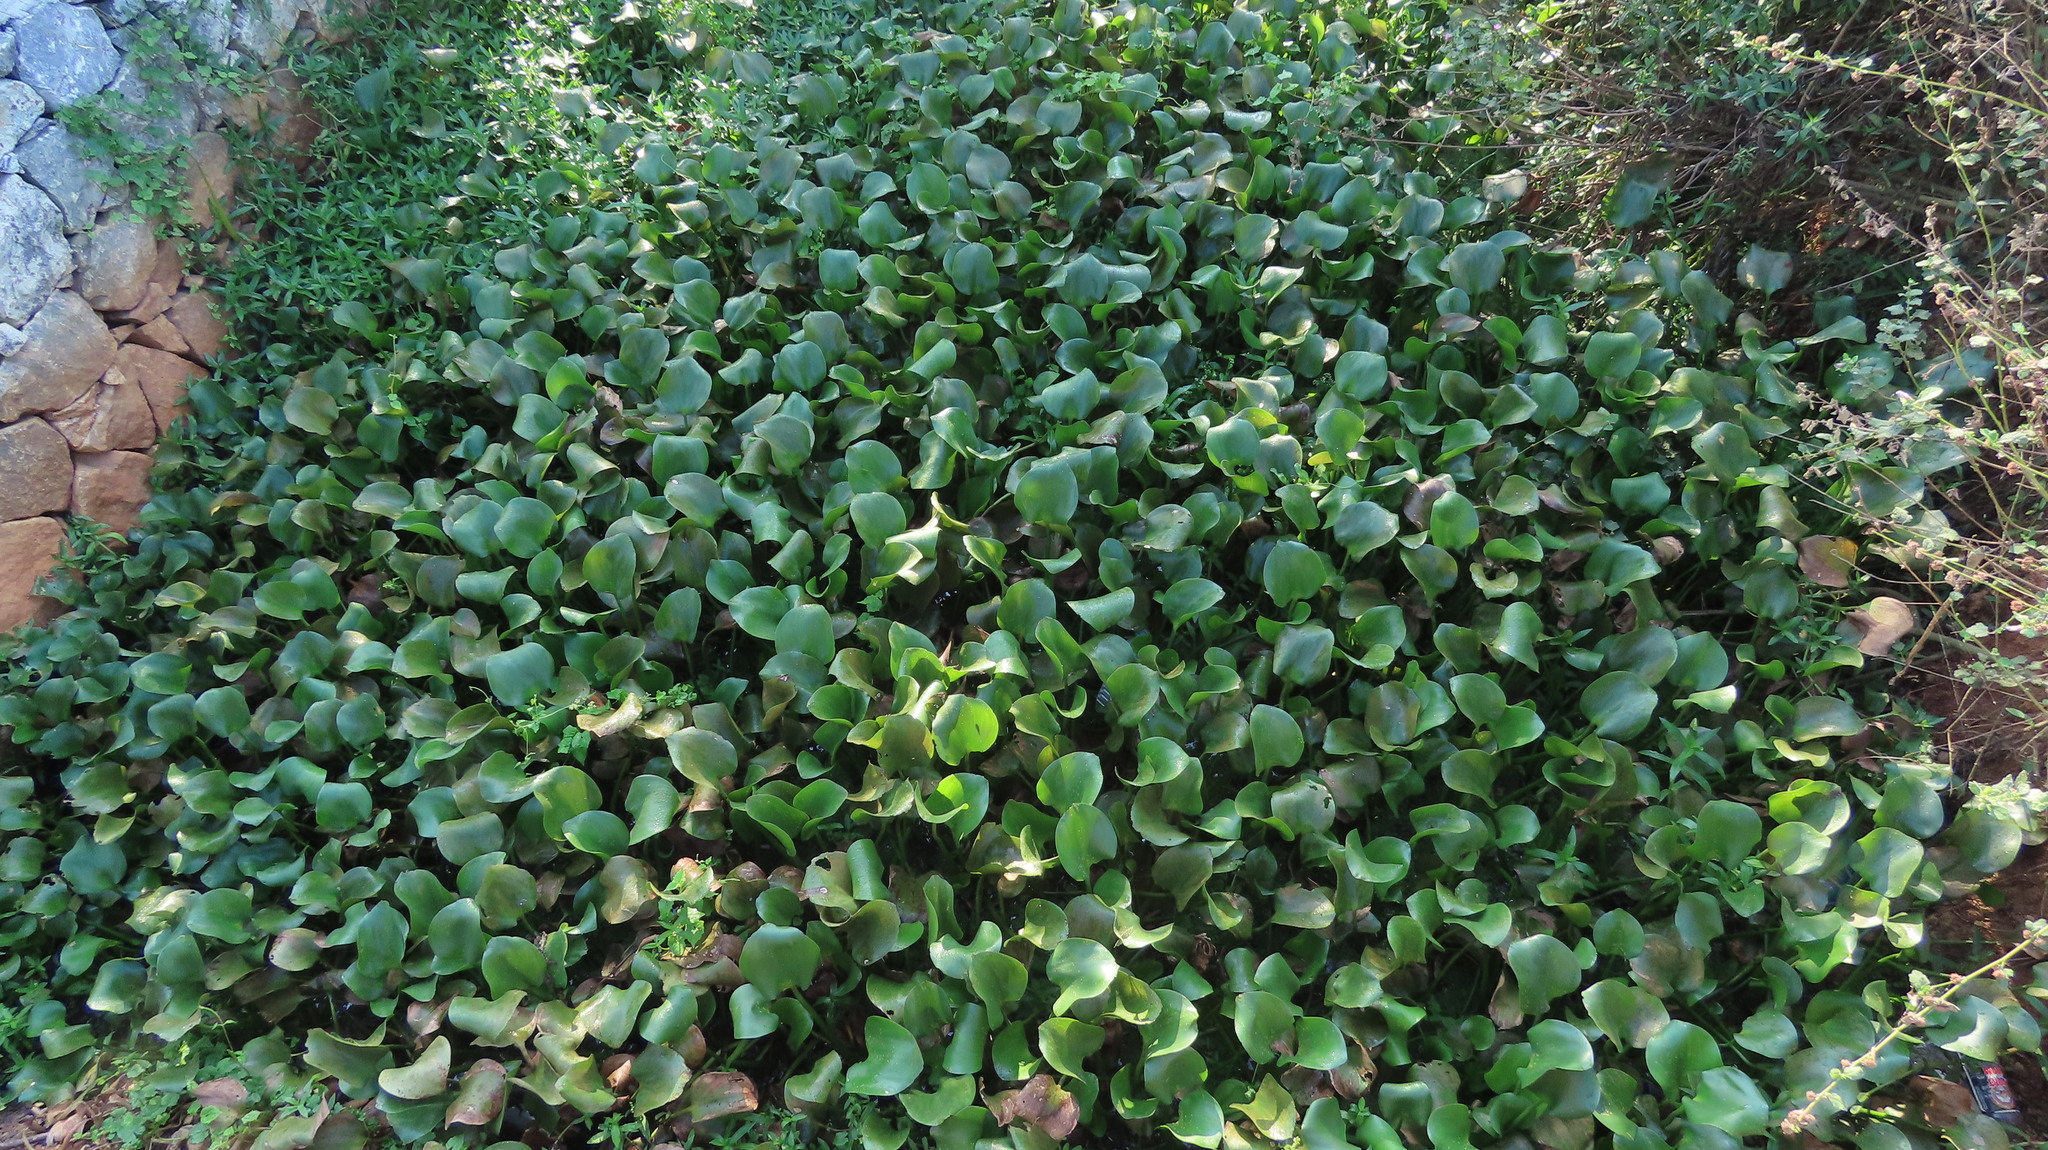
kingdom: Plantae
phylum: Tracheophyta
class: Liliopsida
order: Commelinales
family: Pontederiaceae
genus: Pontederia
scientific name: Pontederia crassipes
